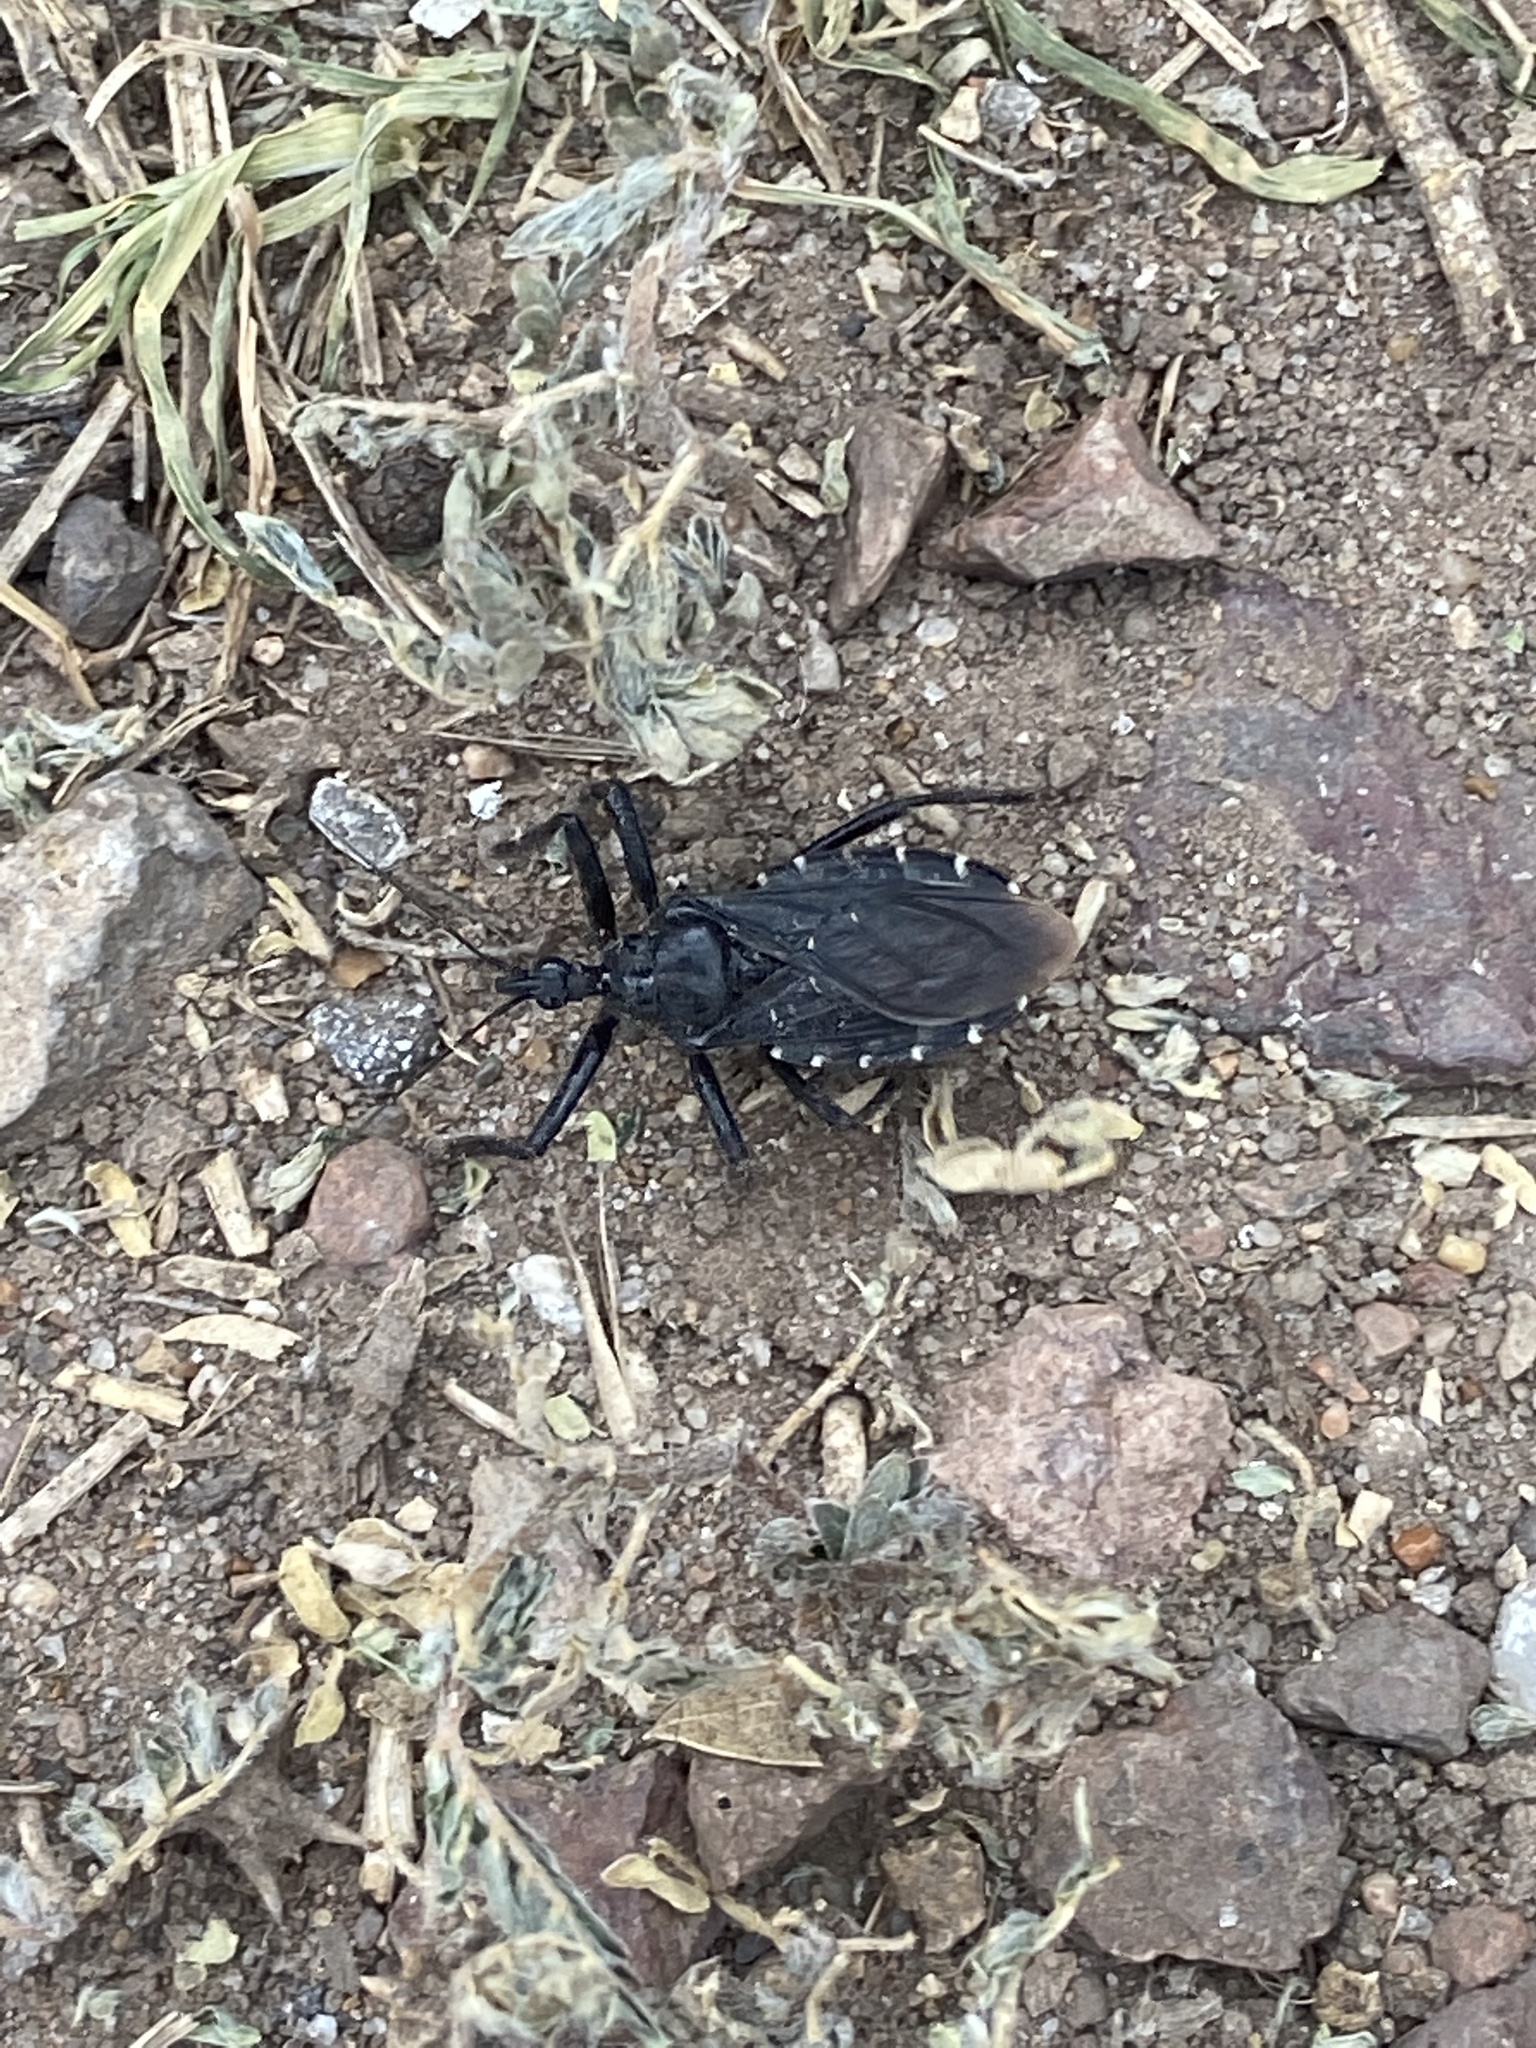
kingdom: Animalia
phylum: Arthropoda
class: Insecta
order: Hemiptera
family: Reduviidae
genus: Apiomerus
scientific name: Apiomerus longispinis
